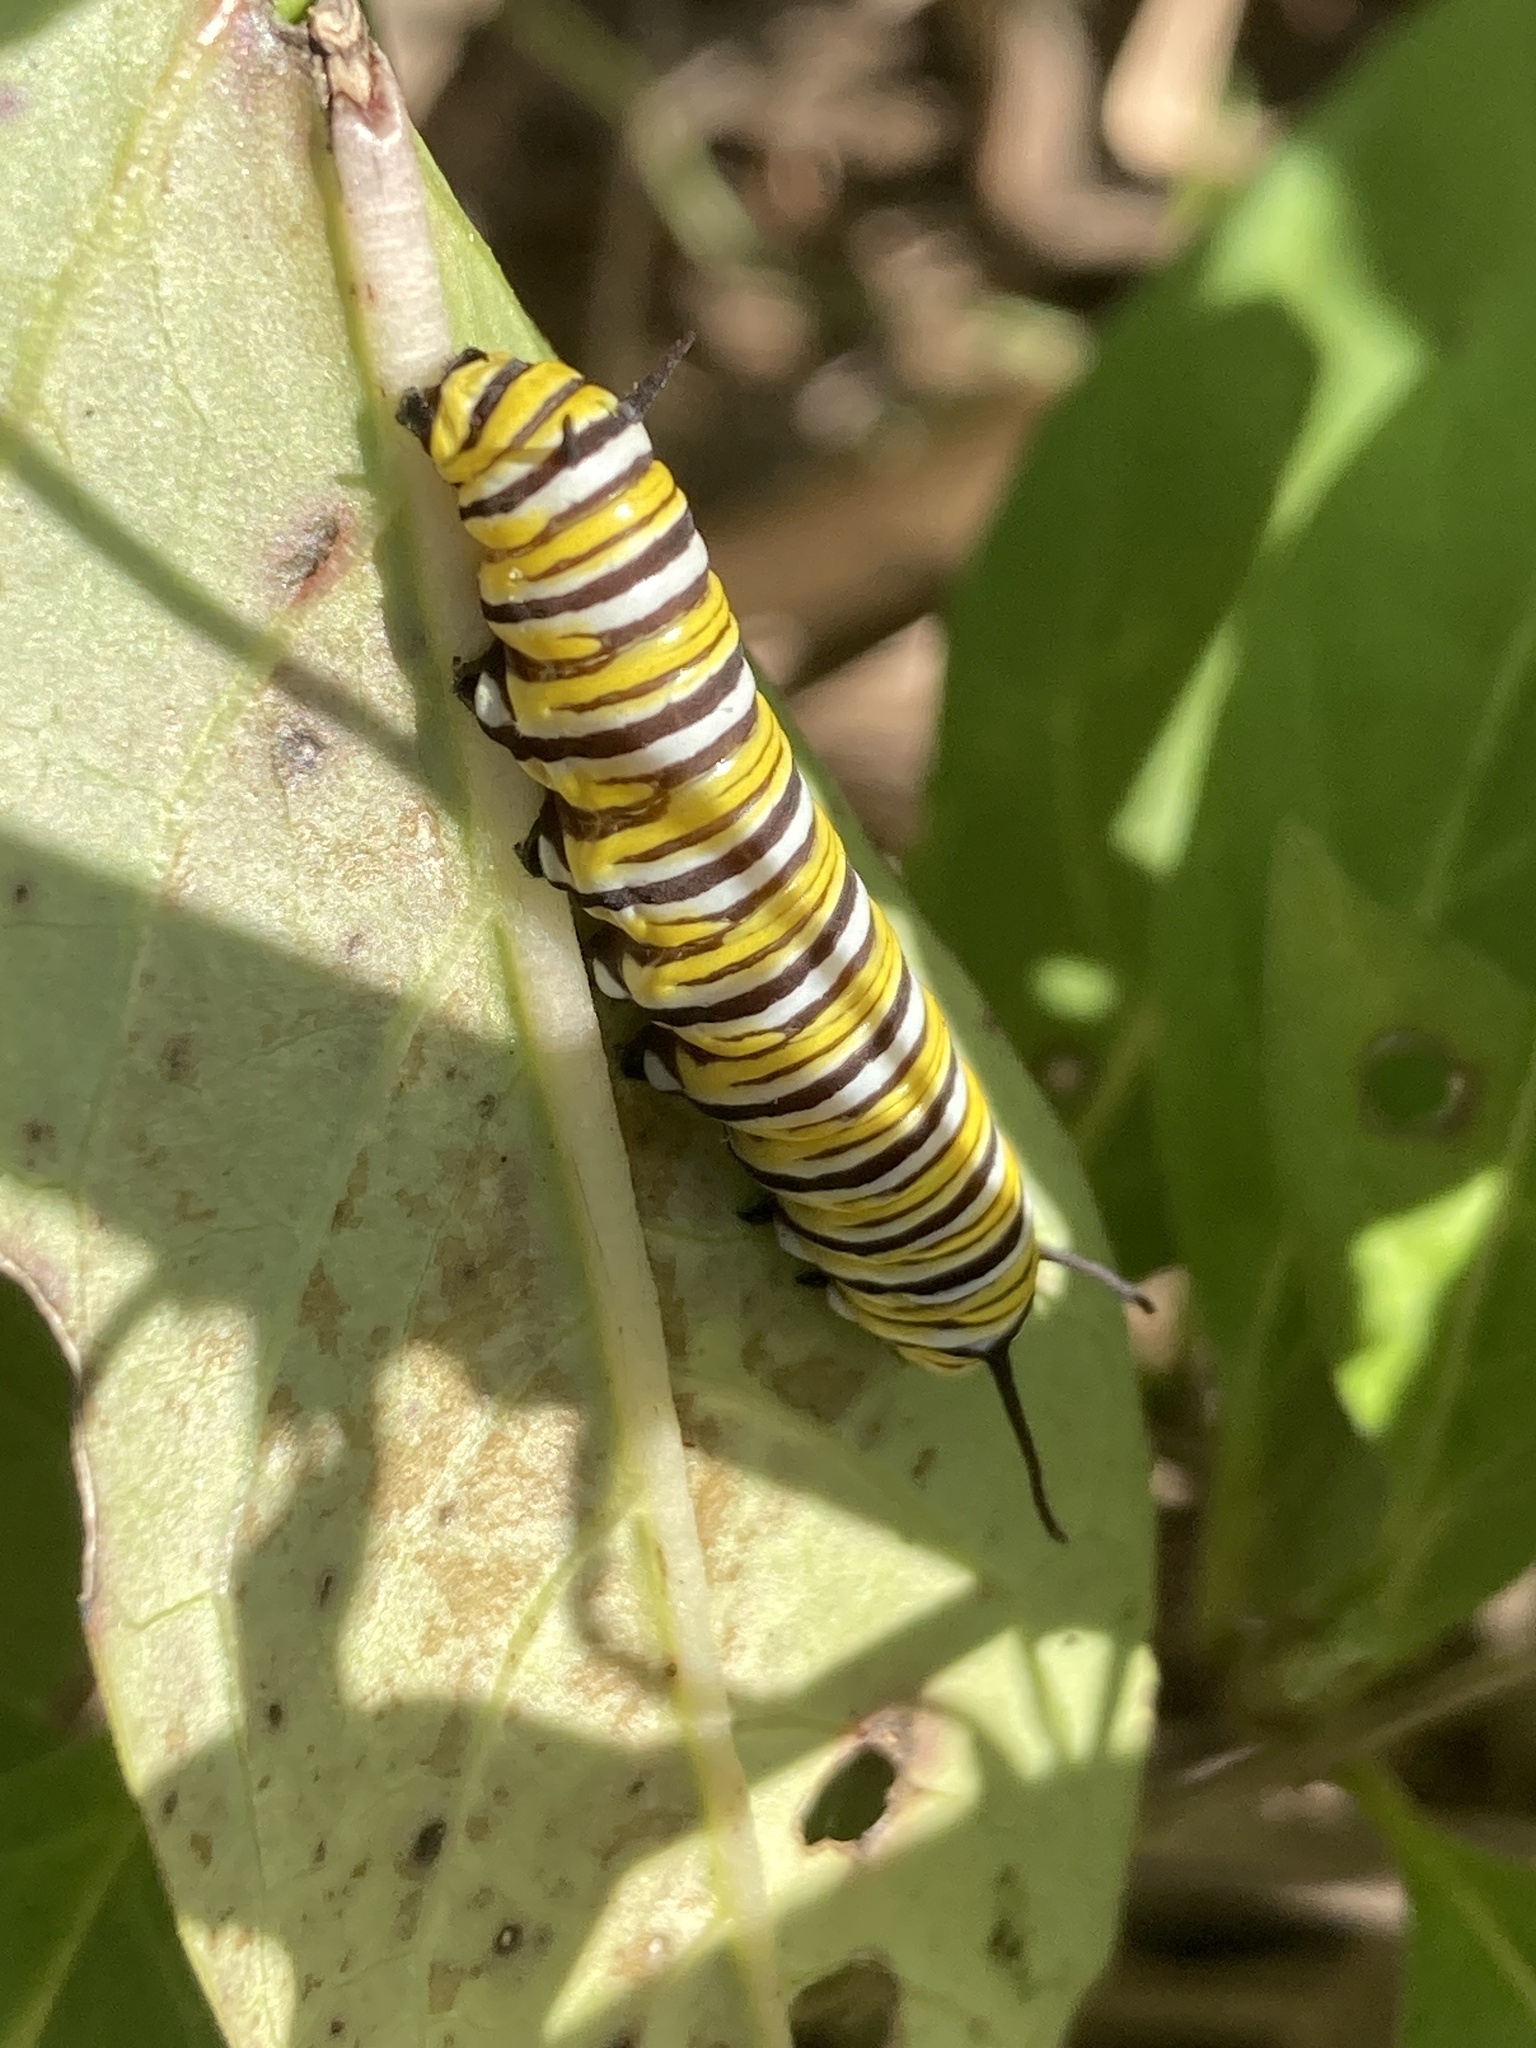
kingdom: Animalia
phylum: Arthropoda
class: Insecta
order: Lepidoptera
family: Nymphalidae
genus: Danaus
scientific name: Danaus plexippus
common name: Monarch
